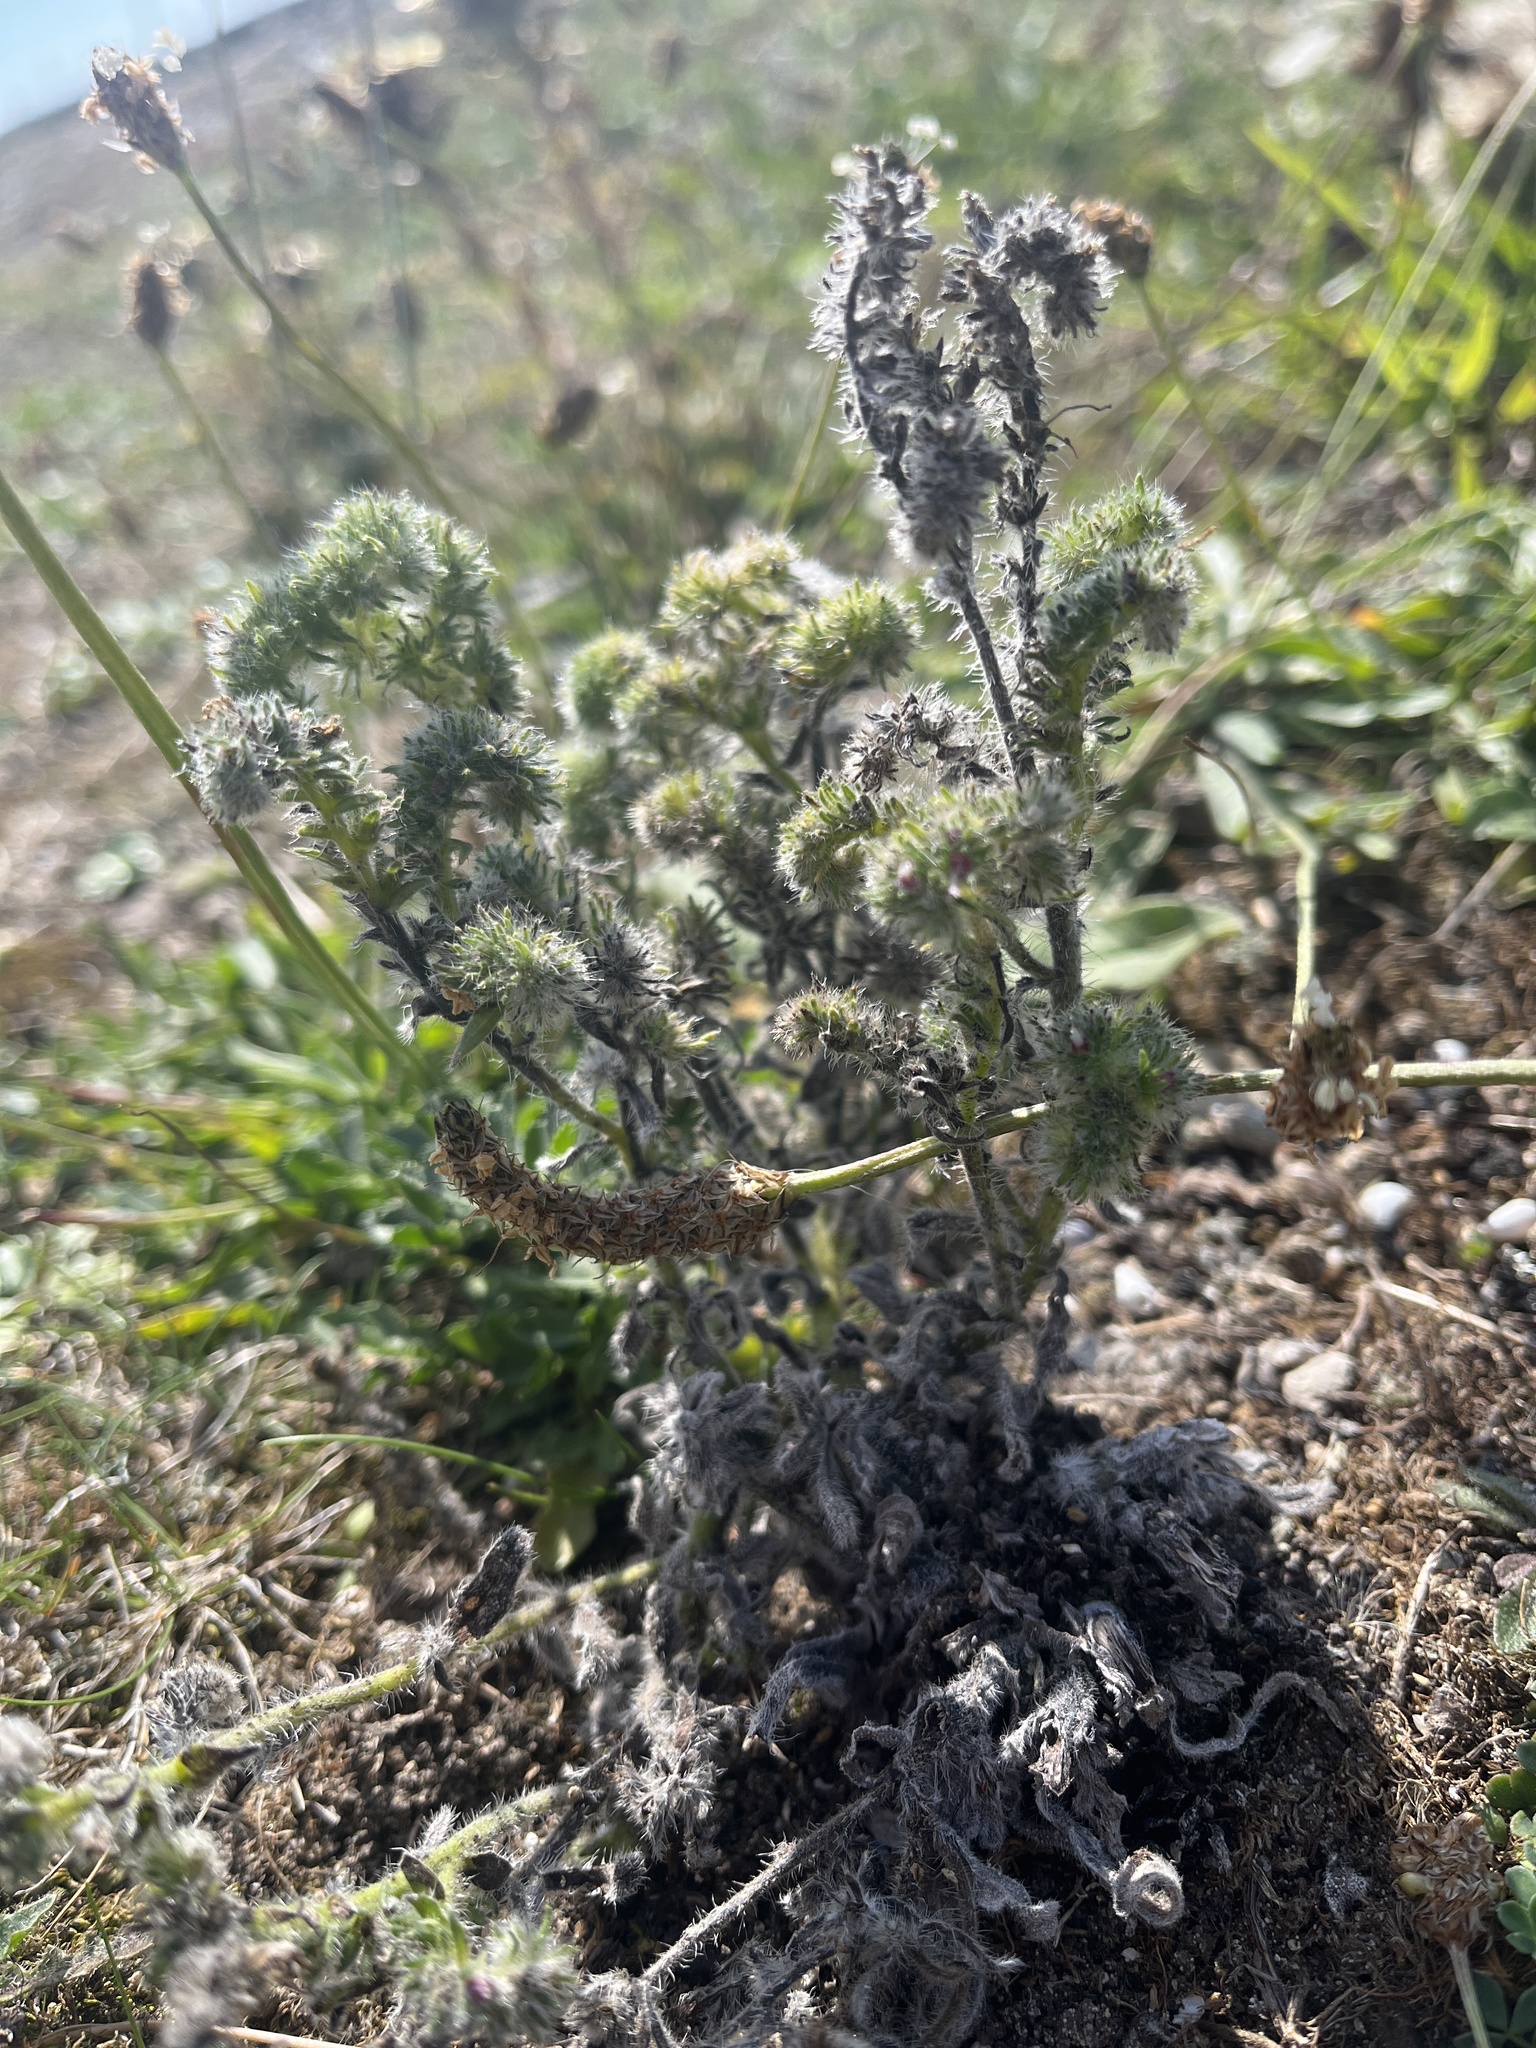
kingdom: Animalia
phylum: Arthropoda
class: Arachnida
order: Trombidiformes
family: Eriophyidae
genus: Aceria
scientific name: Aceria echii
